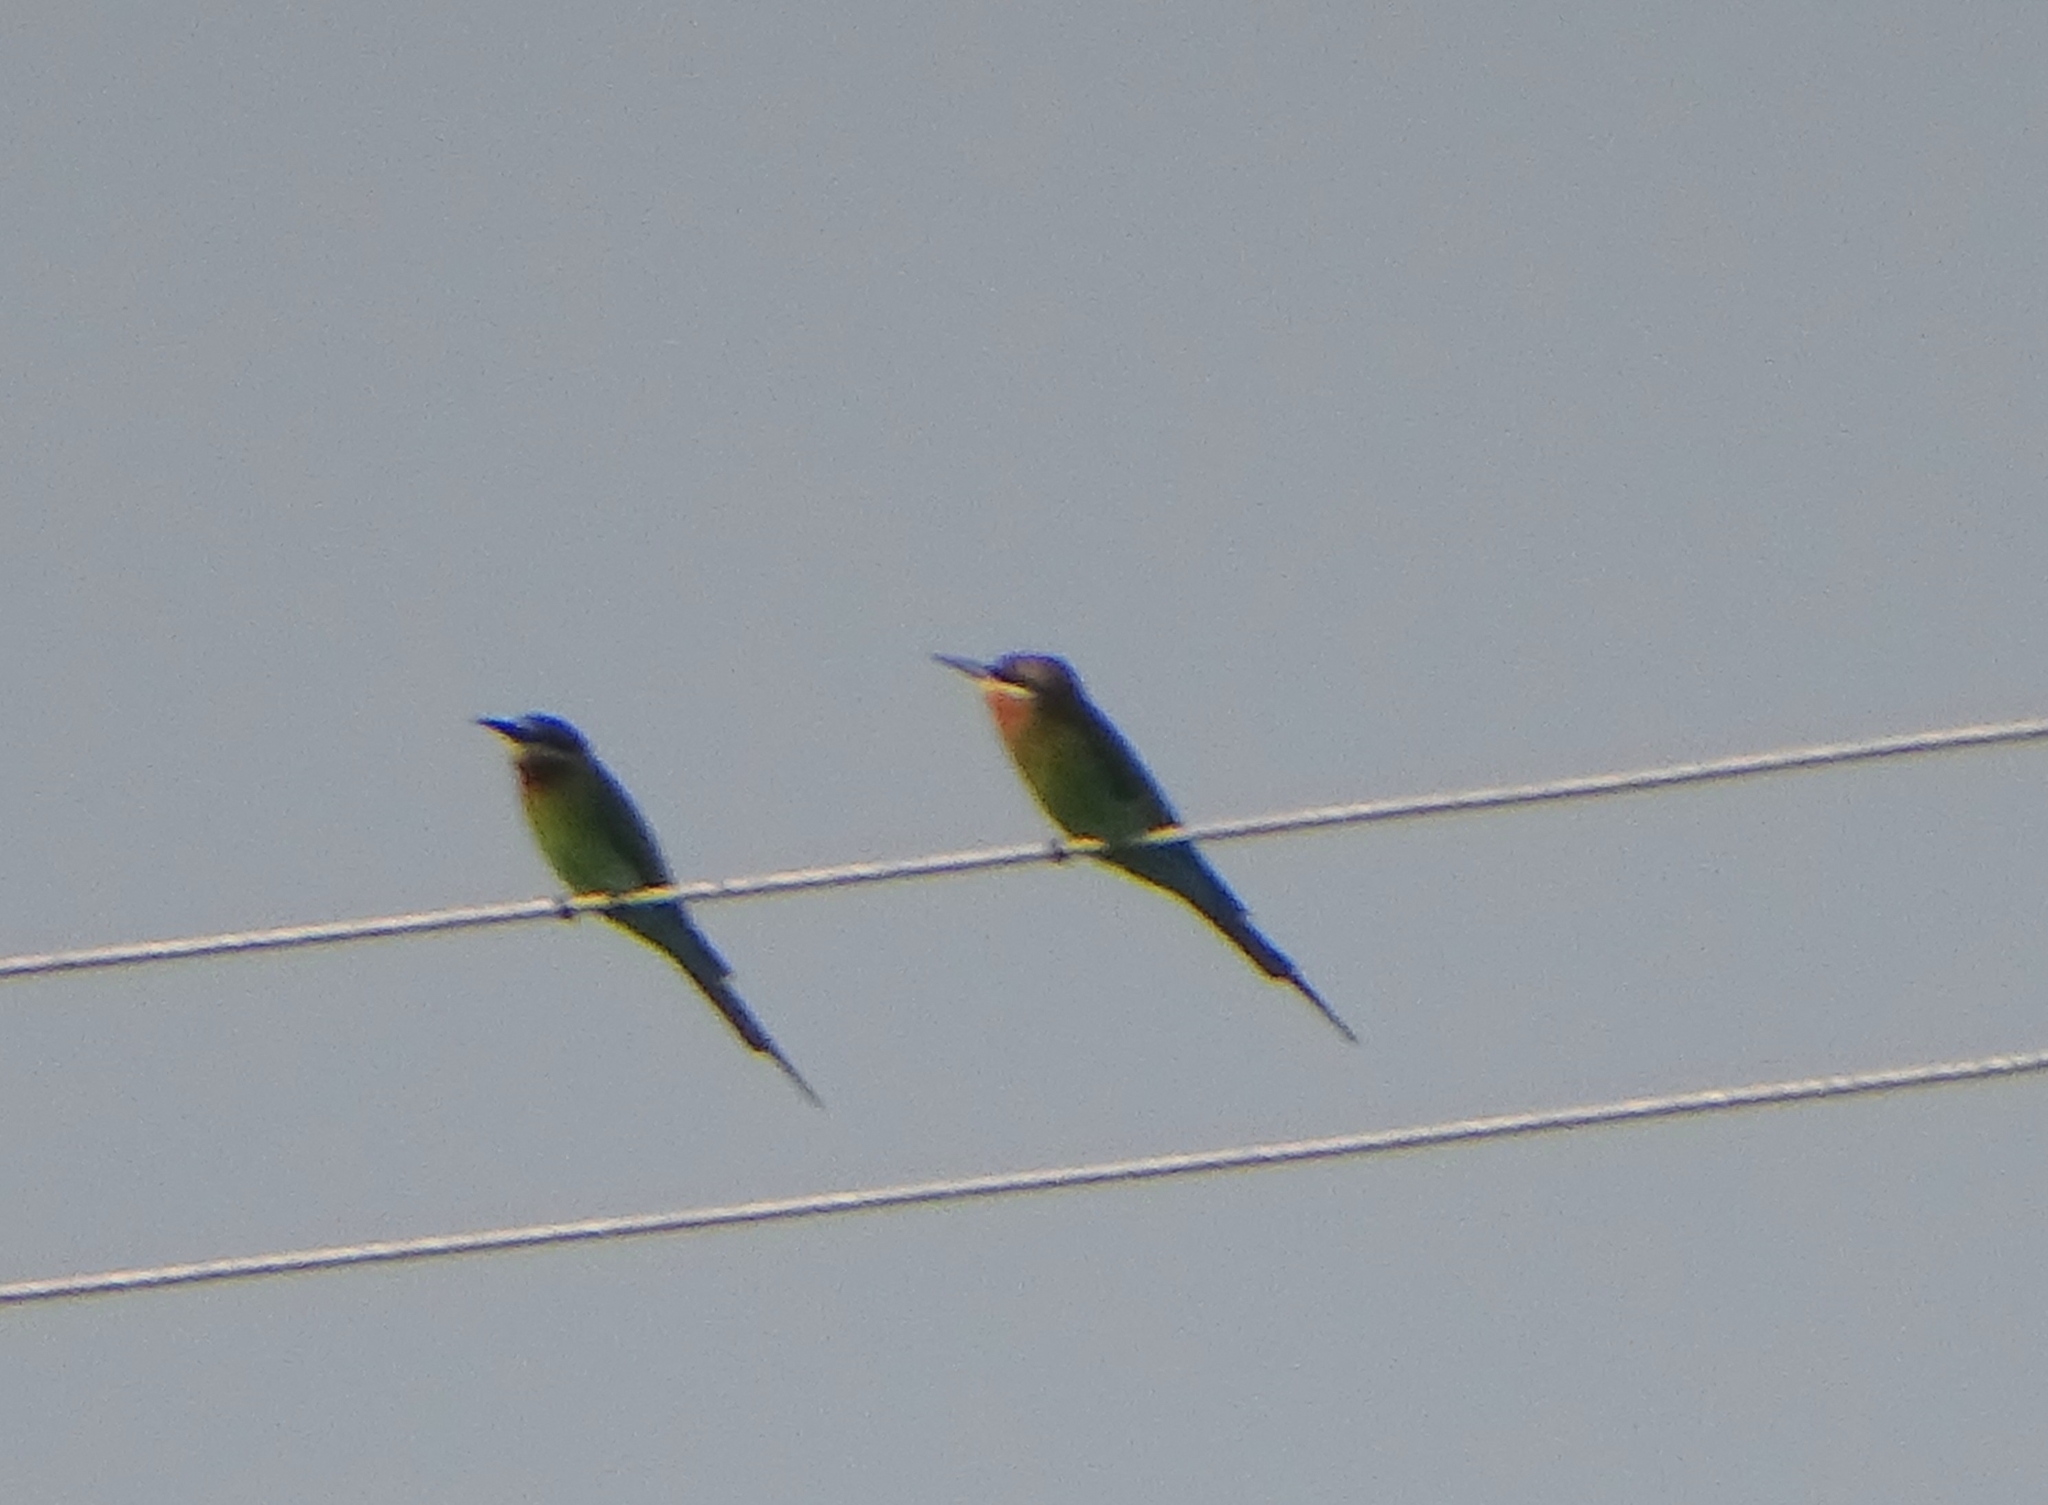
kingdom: Animalia
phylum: Chordata
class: Aves
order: Coraciiformes
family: Meropidae
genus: Merops
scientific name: Merops philippinus
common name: Blue-tailed bee-eater
